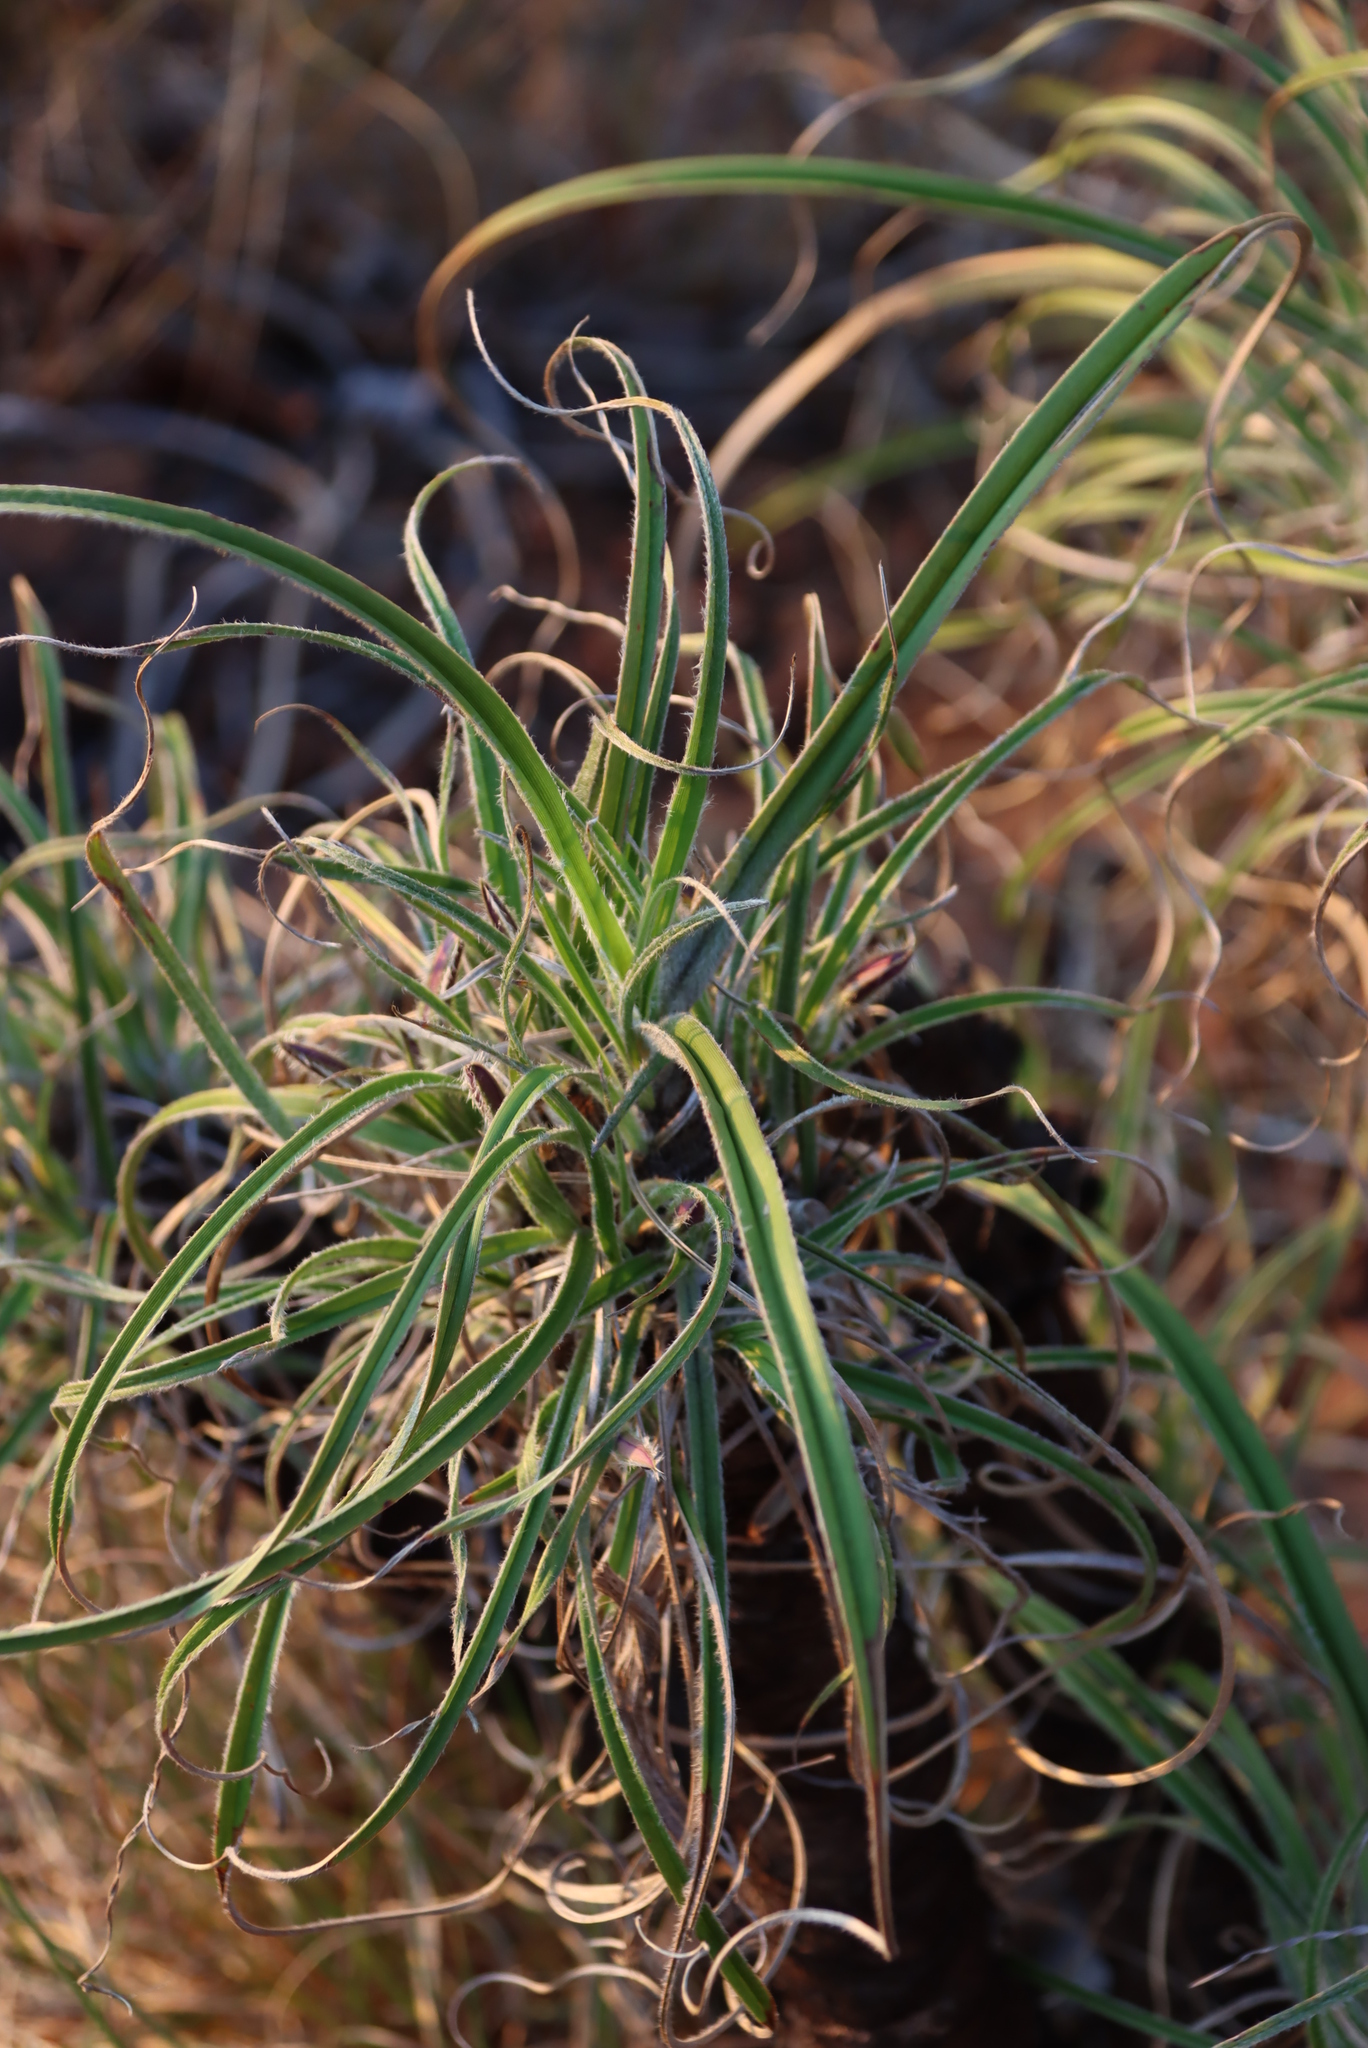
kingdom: Plantae
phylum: Tracheophyta
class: Liliopsida
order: Pandanales
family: Velloziaceae
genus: Xerophyta
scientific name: Xerophyta retinervis
